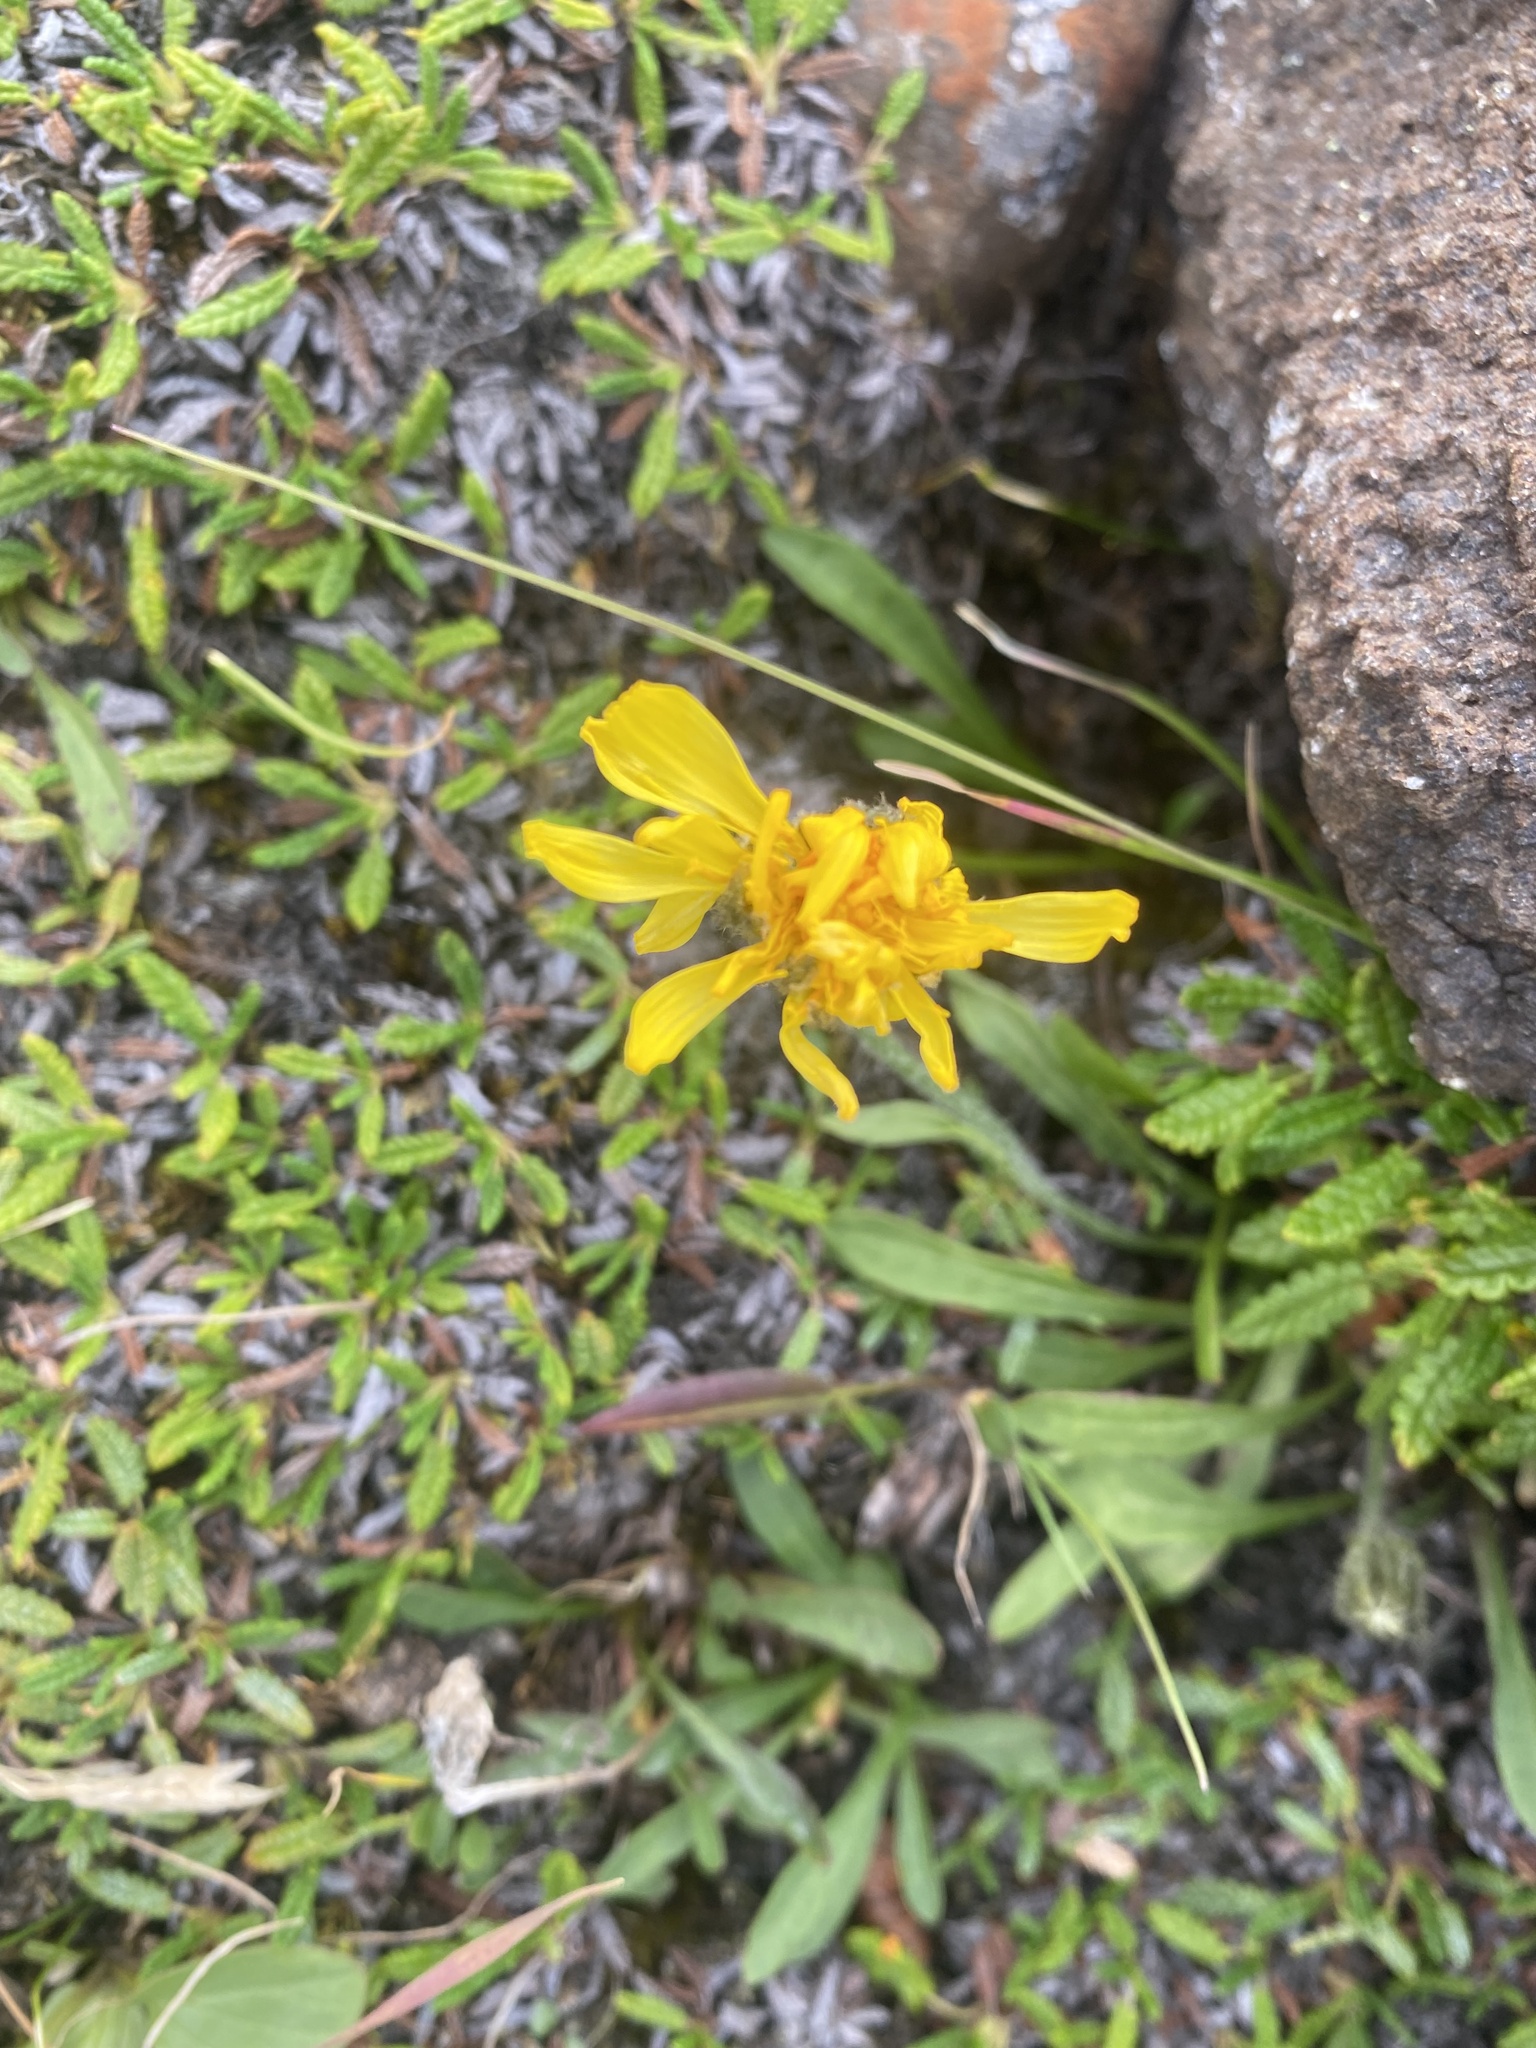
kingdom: Plantae
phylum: Tracheophyta
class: Magnoliopsida
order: Asterales
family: Asteraceae
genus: Crepis
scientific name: Crepis chrysantha
